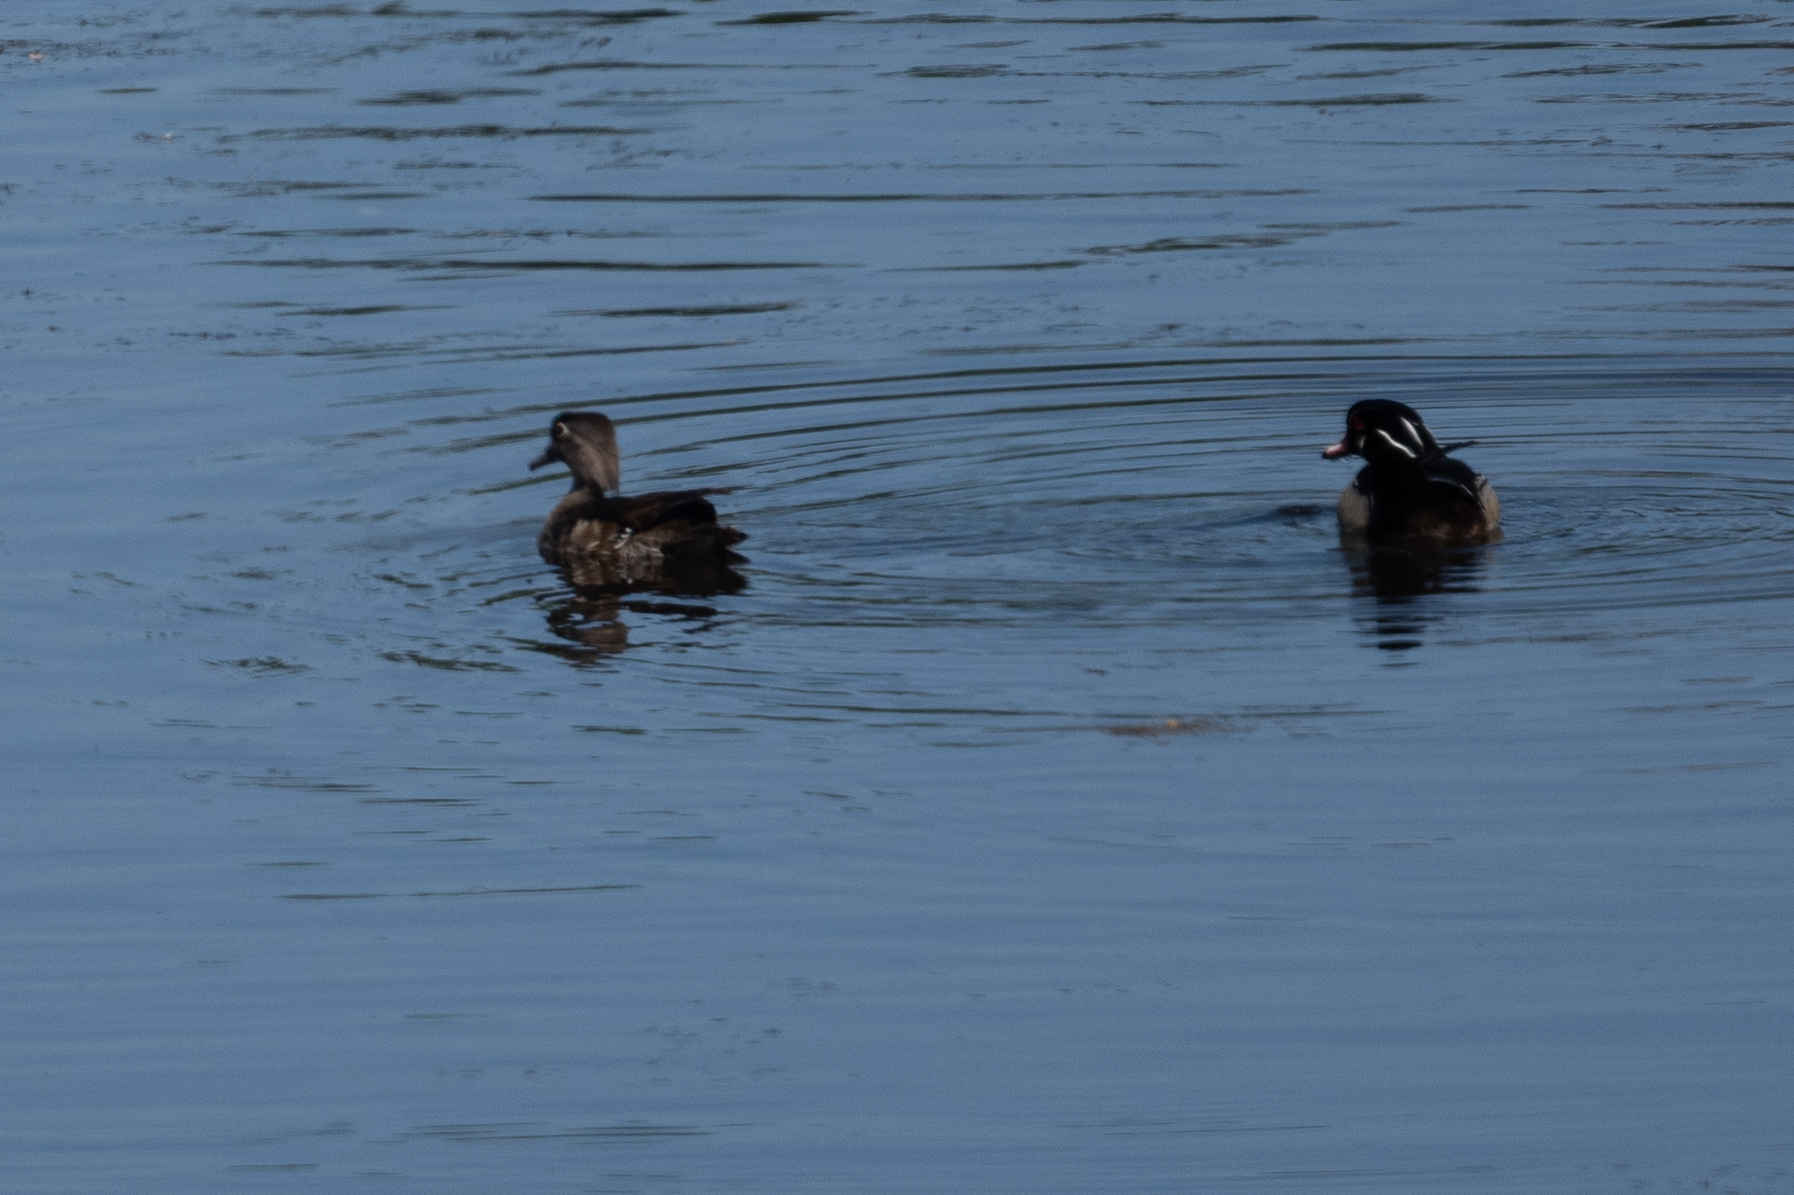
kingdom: Animalia
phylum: Chordata
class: Aves
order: Anseriformes
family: Anatidae
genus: Aix
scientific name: Aix sponsa
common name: Wood duck
